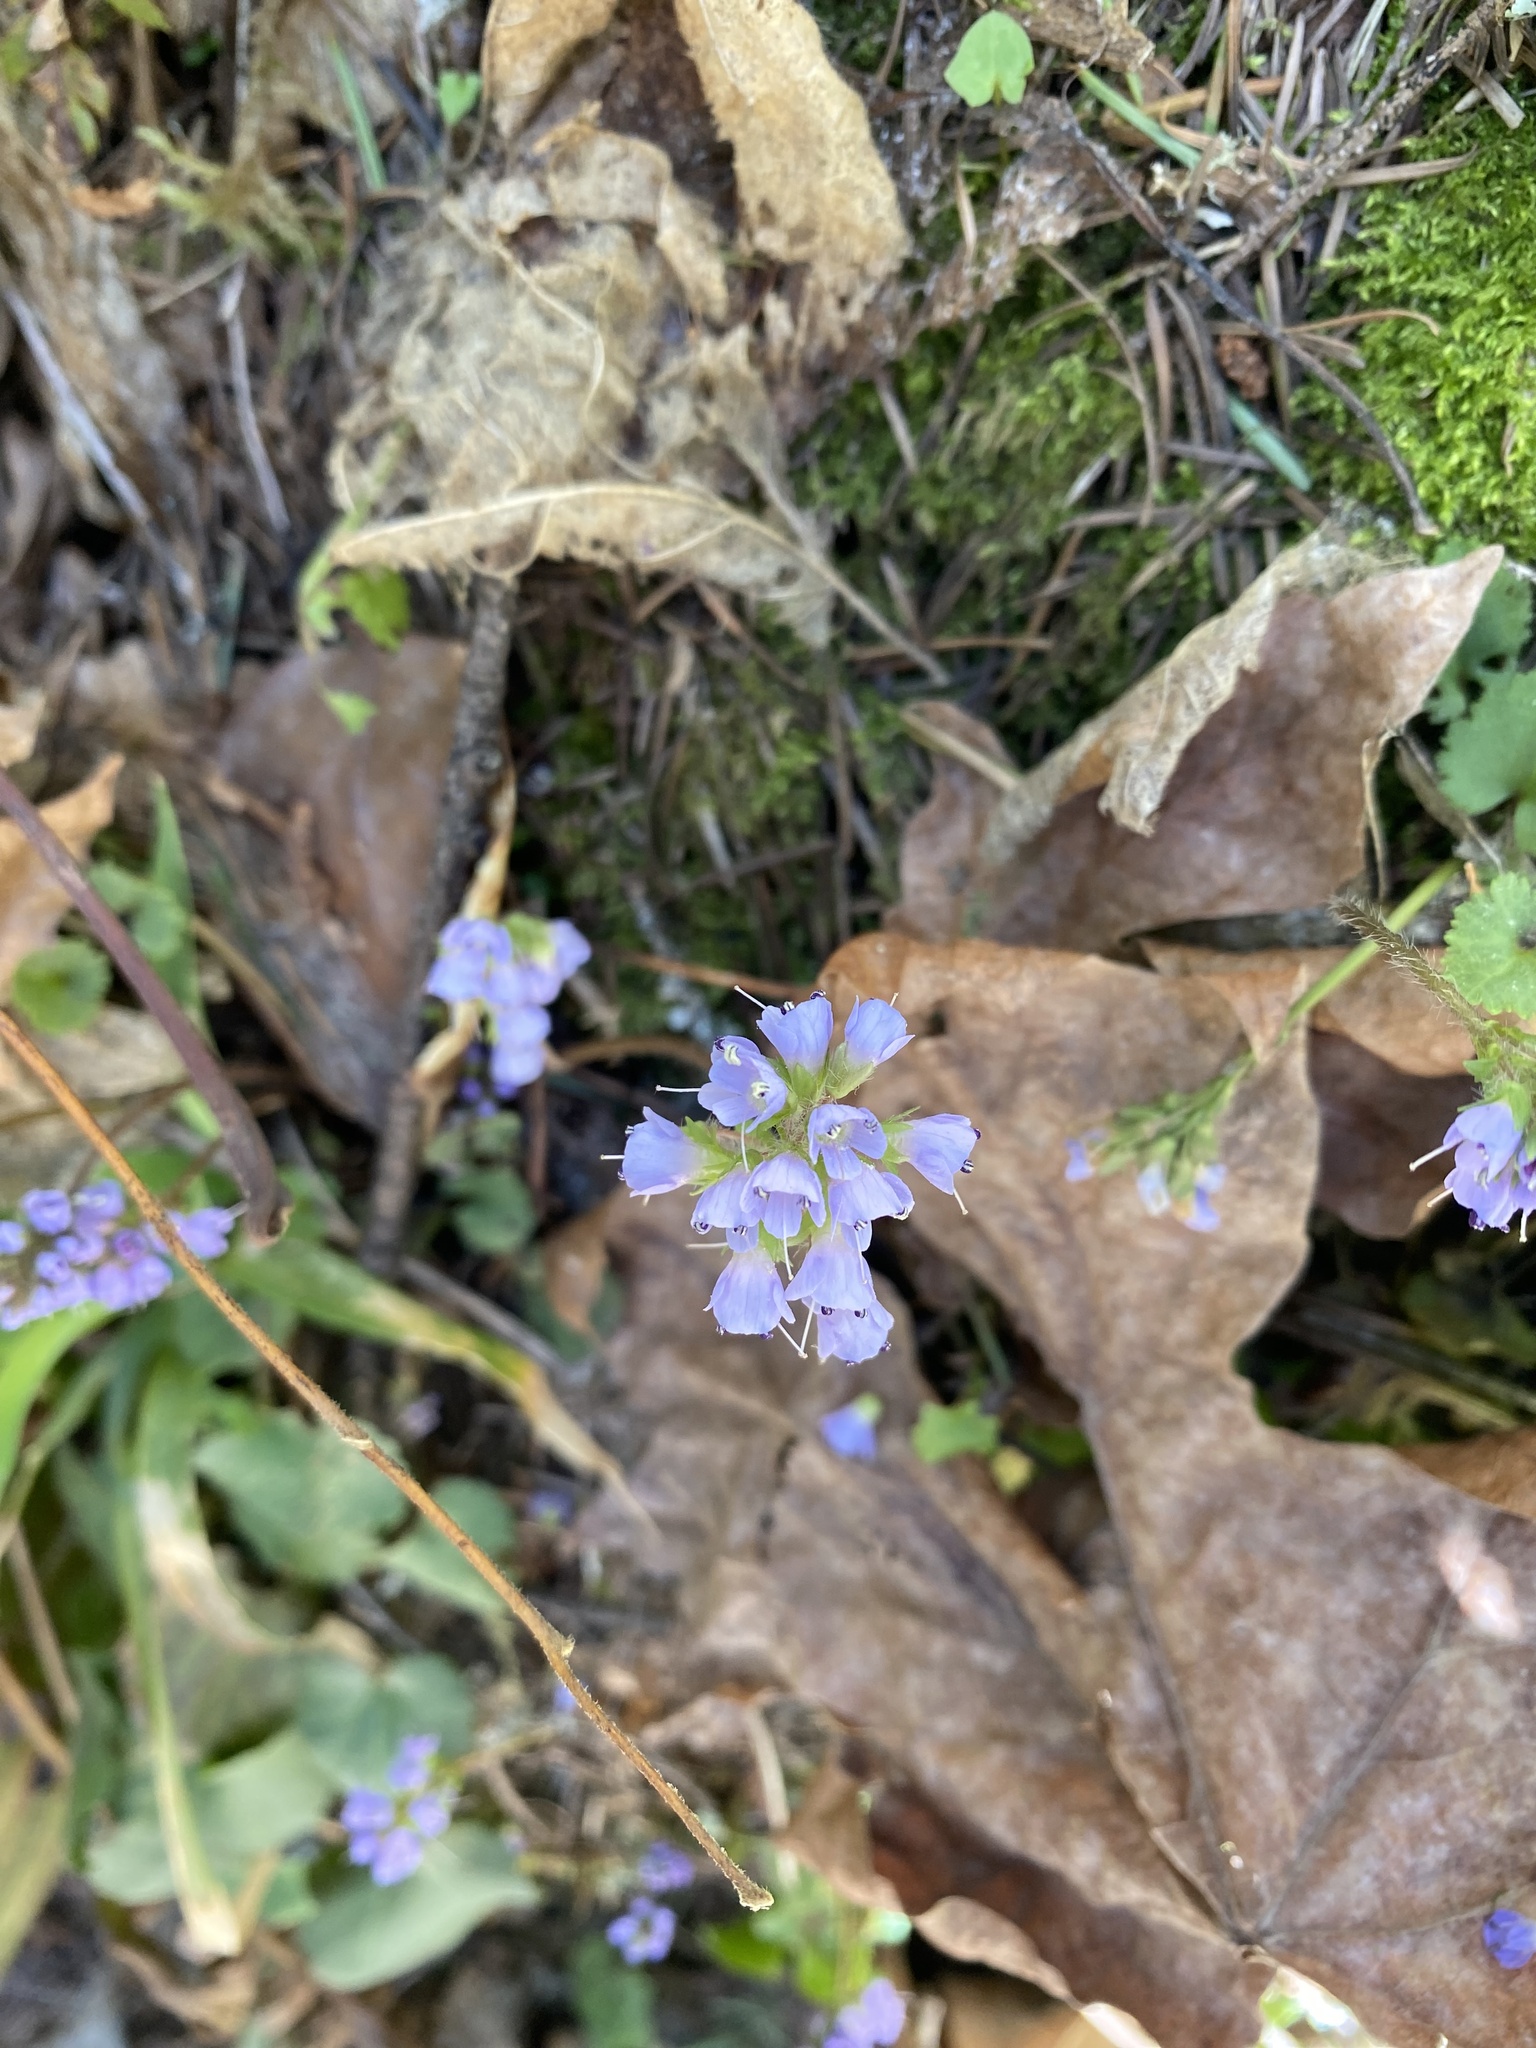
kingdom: Plantae
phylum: Tracheophyta
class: Magnoliopsida
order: Lamiales
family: Plantaginaceae
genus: Synthyris
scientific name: Synthyris reniformis
